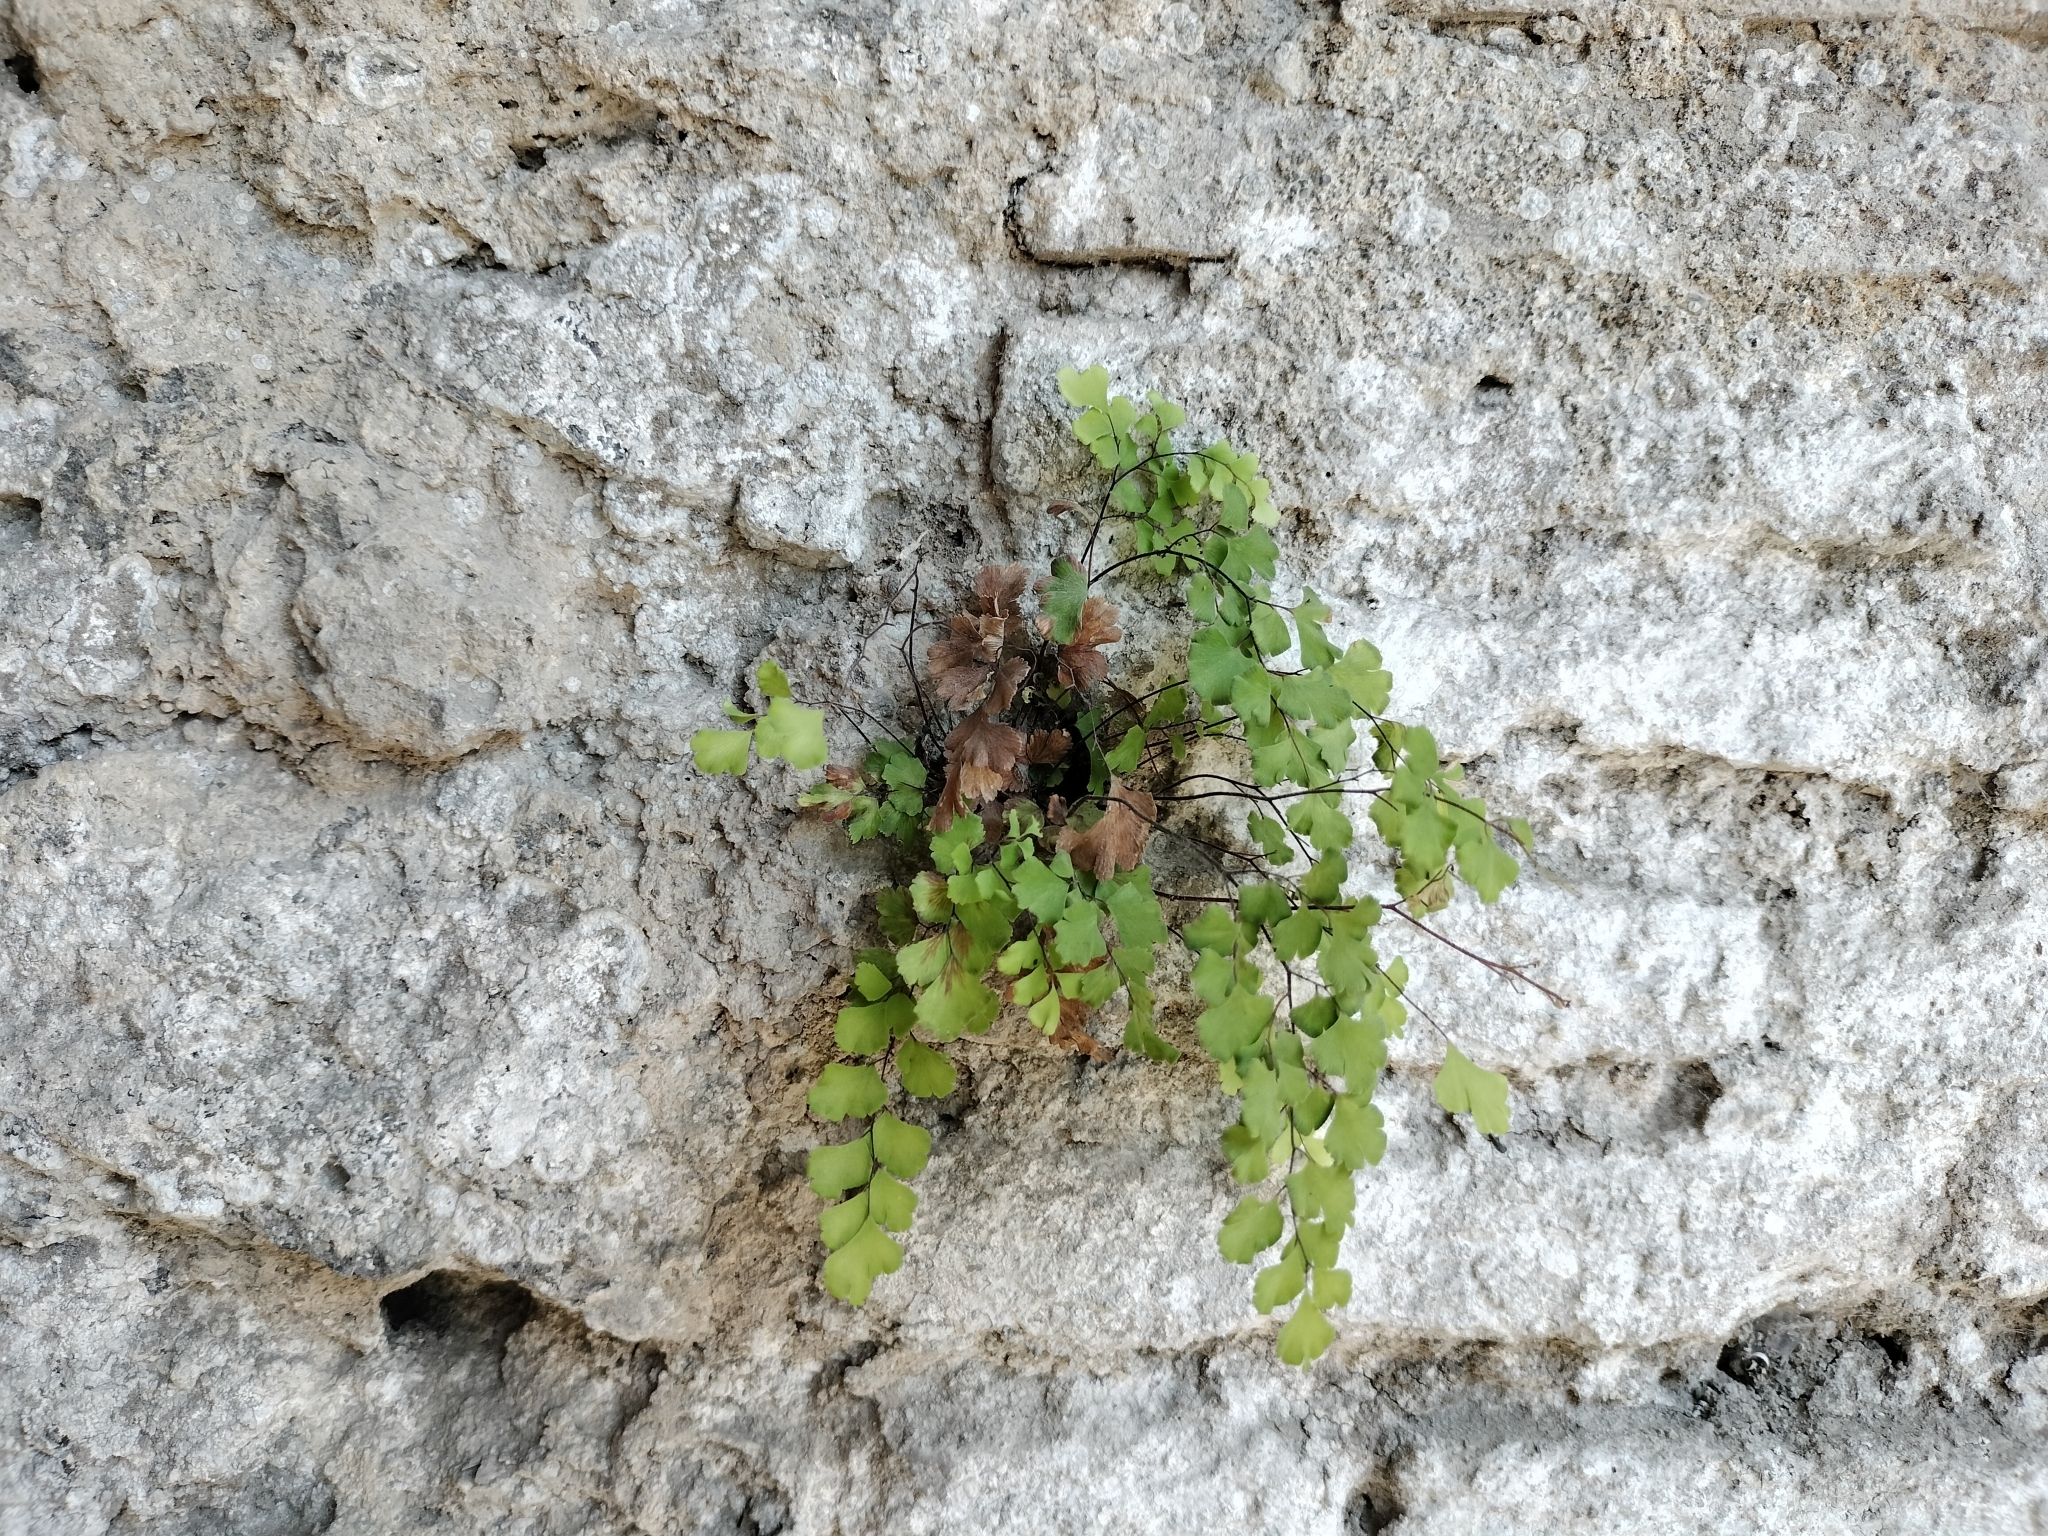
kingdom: Plantae
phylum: Tracheophyta
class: Polypodiopsida
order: Polypodiales
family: Pteridaceae
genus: Adiantum
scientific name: Adiantum capillus-veneris
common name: Maidenhair fern
